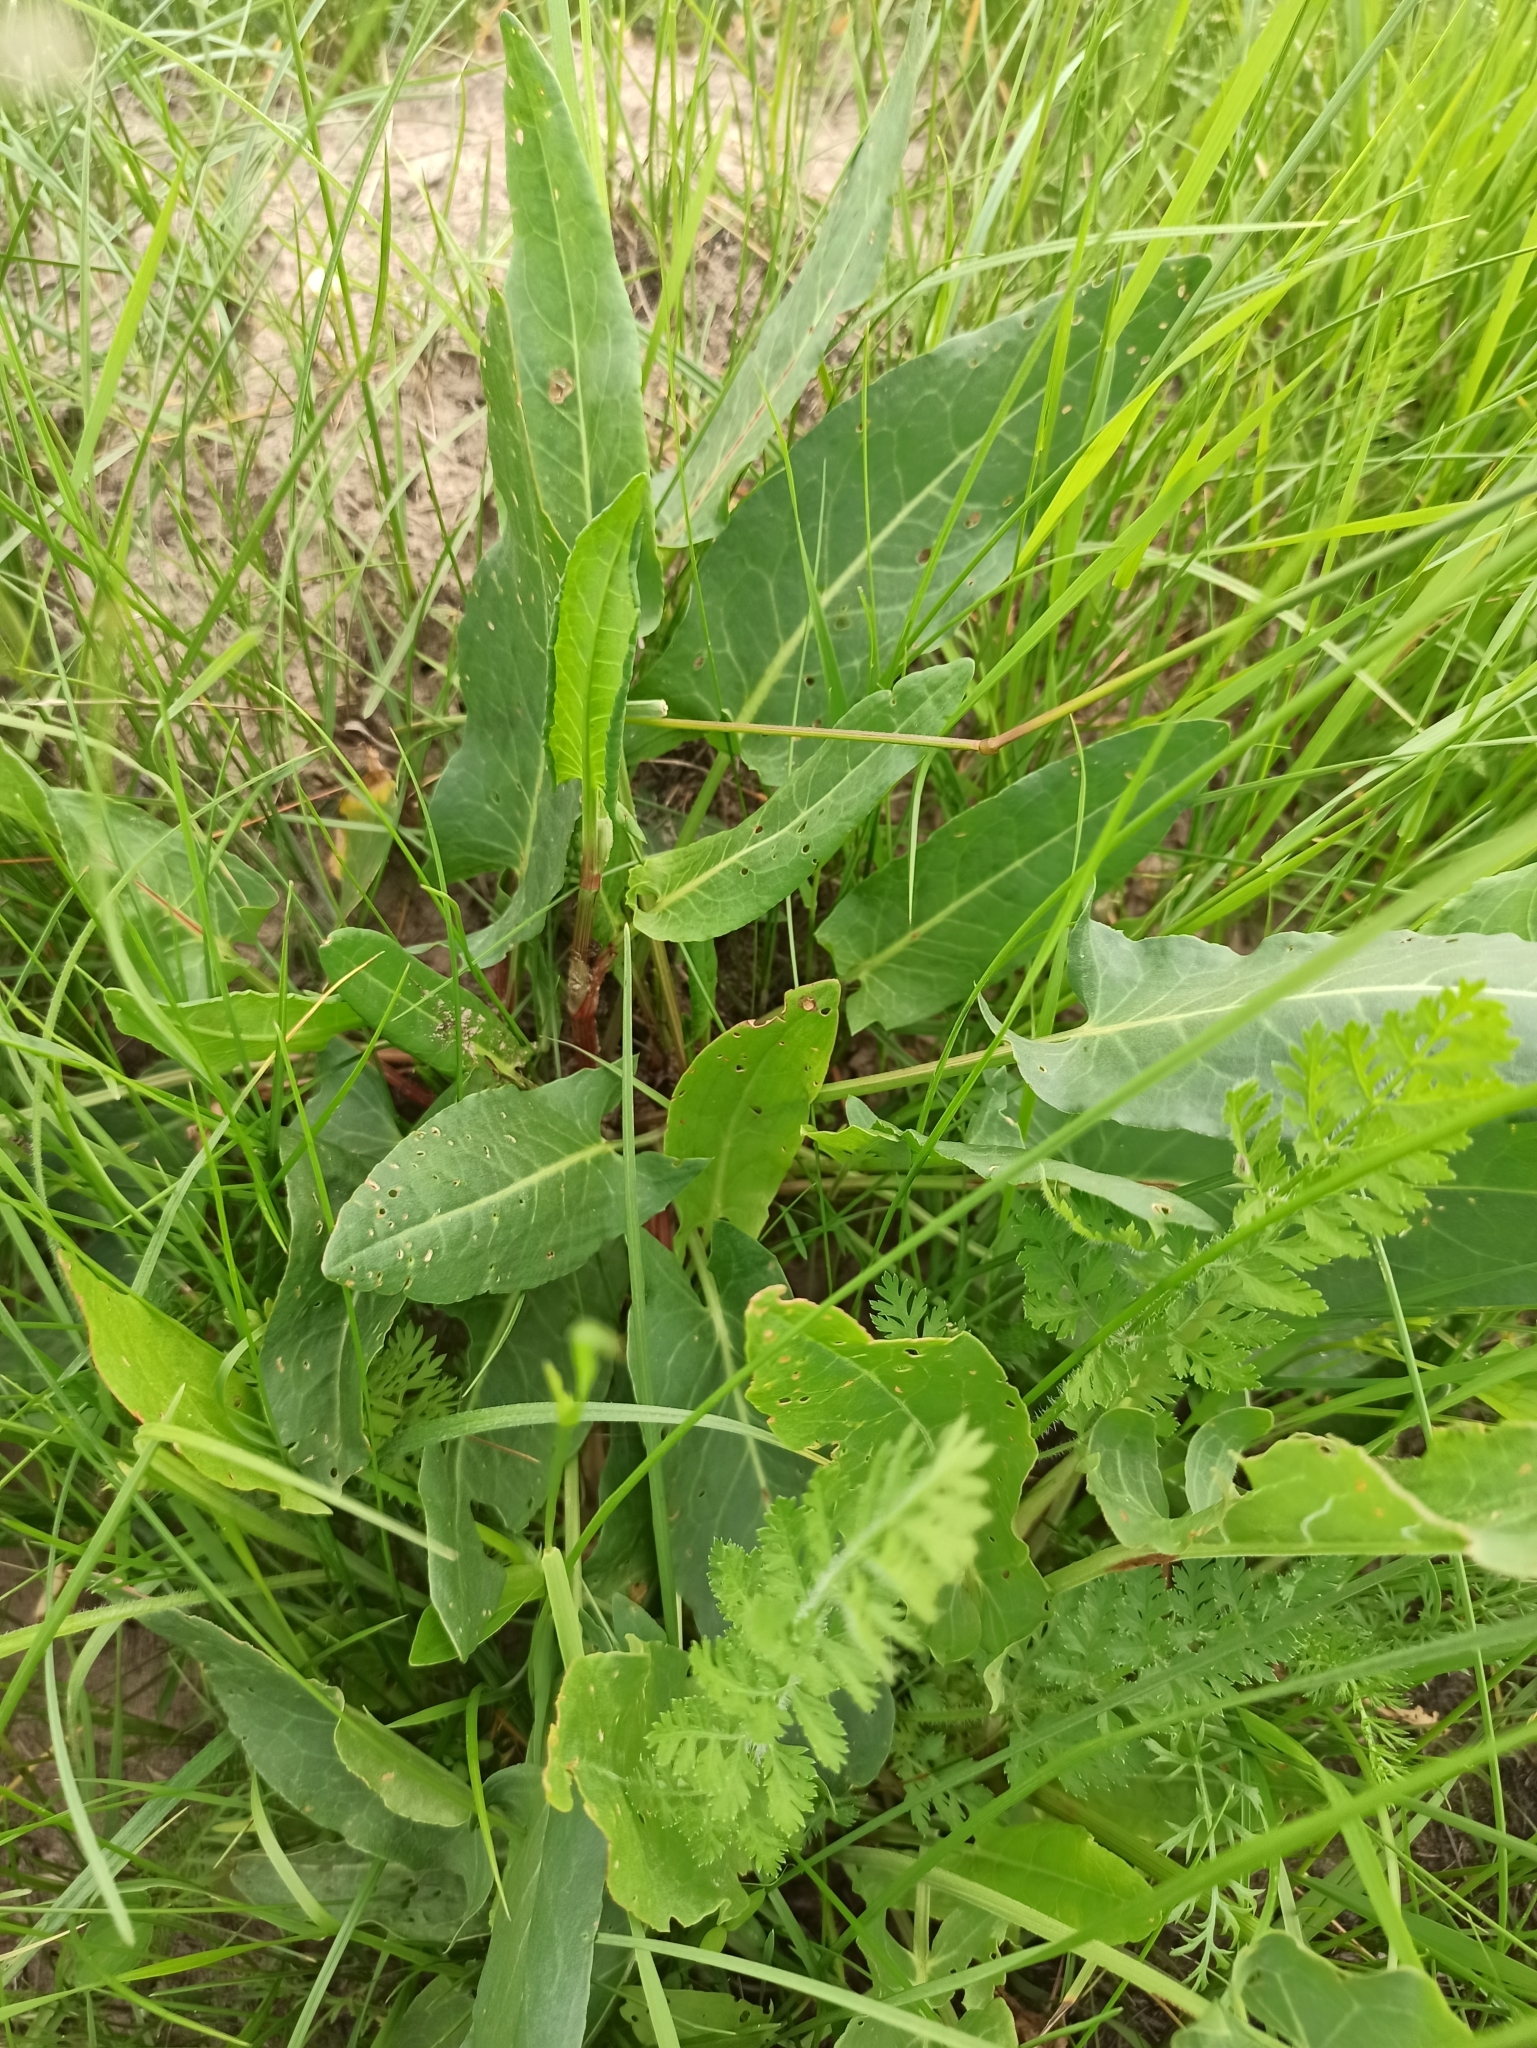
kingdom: Plantae
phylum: Tracheophyta
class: Magnoliopsida
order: Caryophyllales
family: Polygonaceae
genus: Rumex
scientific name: Rumex acetosa
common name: Garden sorrel
